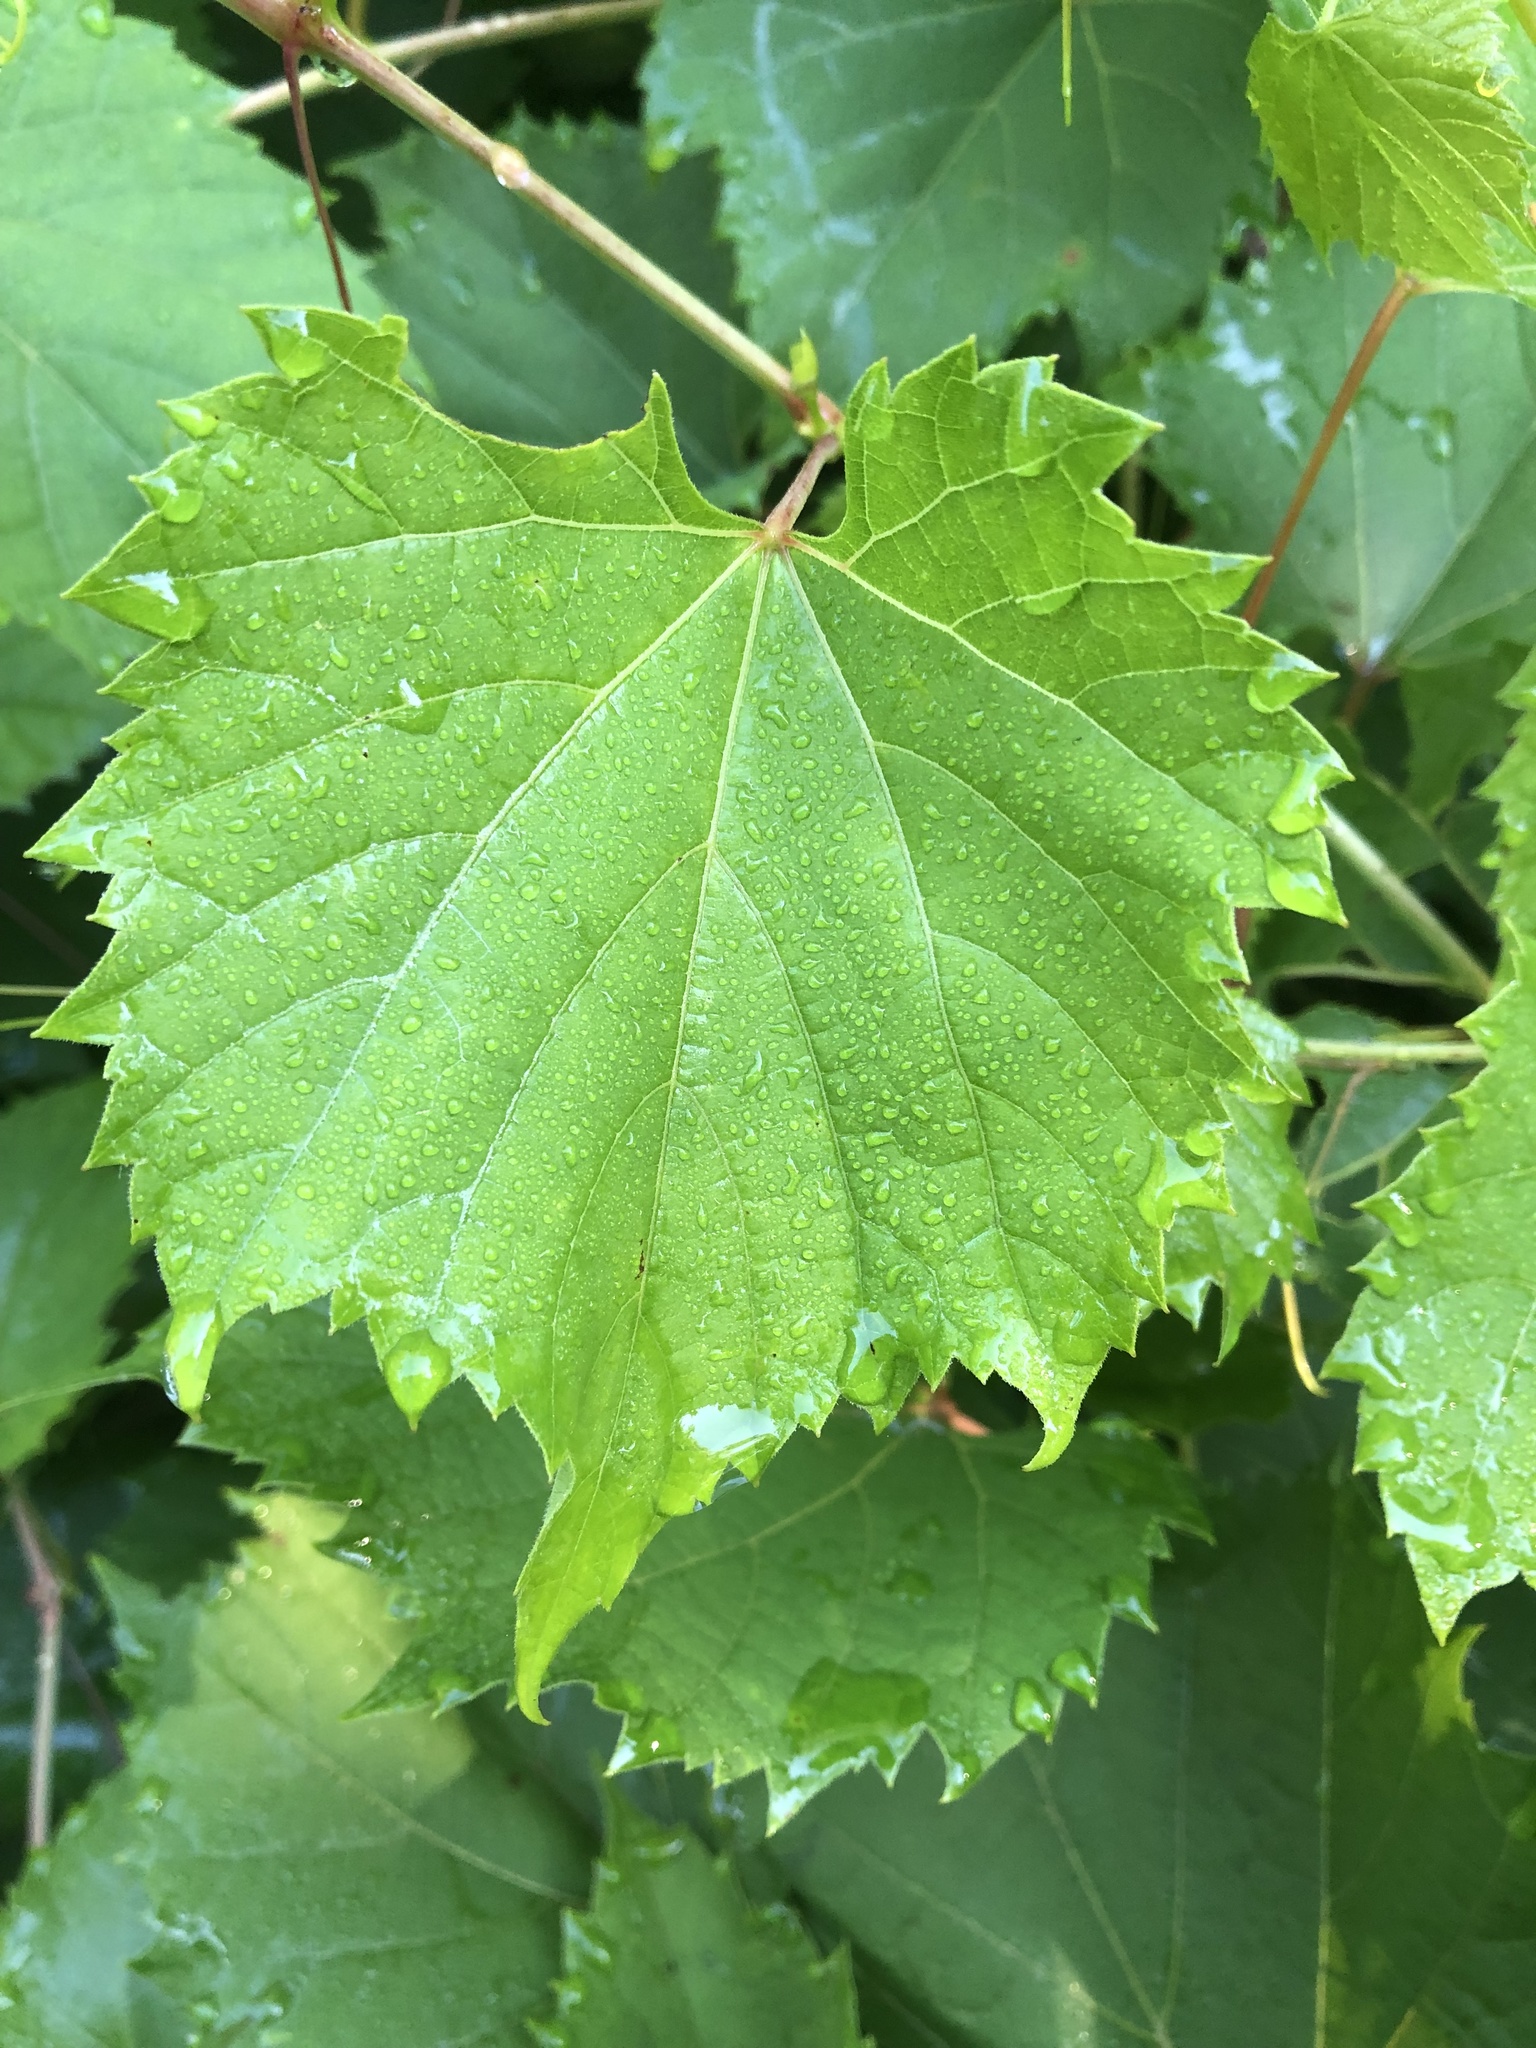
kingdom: Plantae
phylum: Tracheophyta
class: Magnoliopsida
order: Vitales
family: Vitaceae
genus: Vitis
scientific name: Vitis riparia
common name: Frost grape
